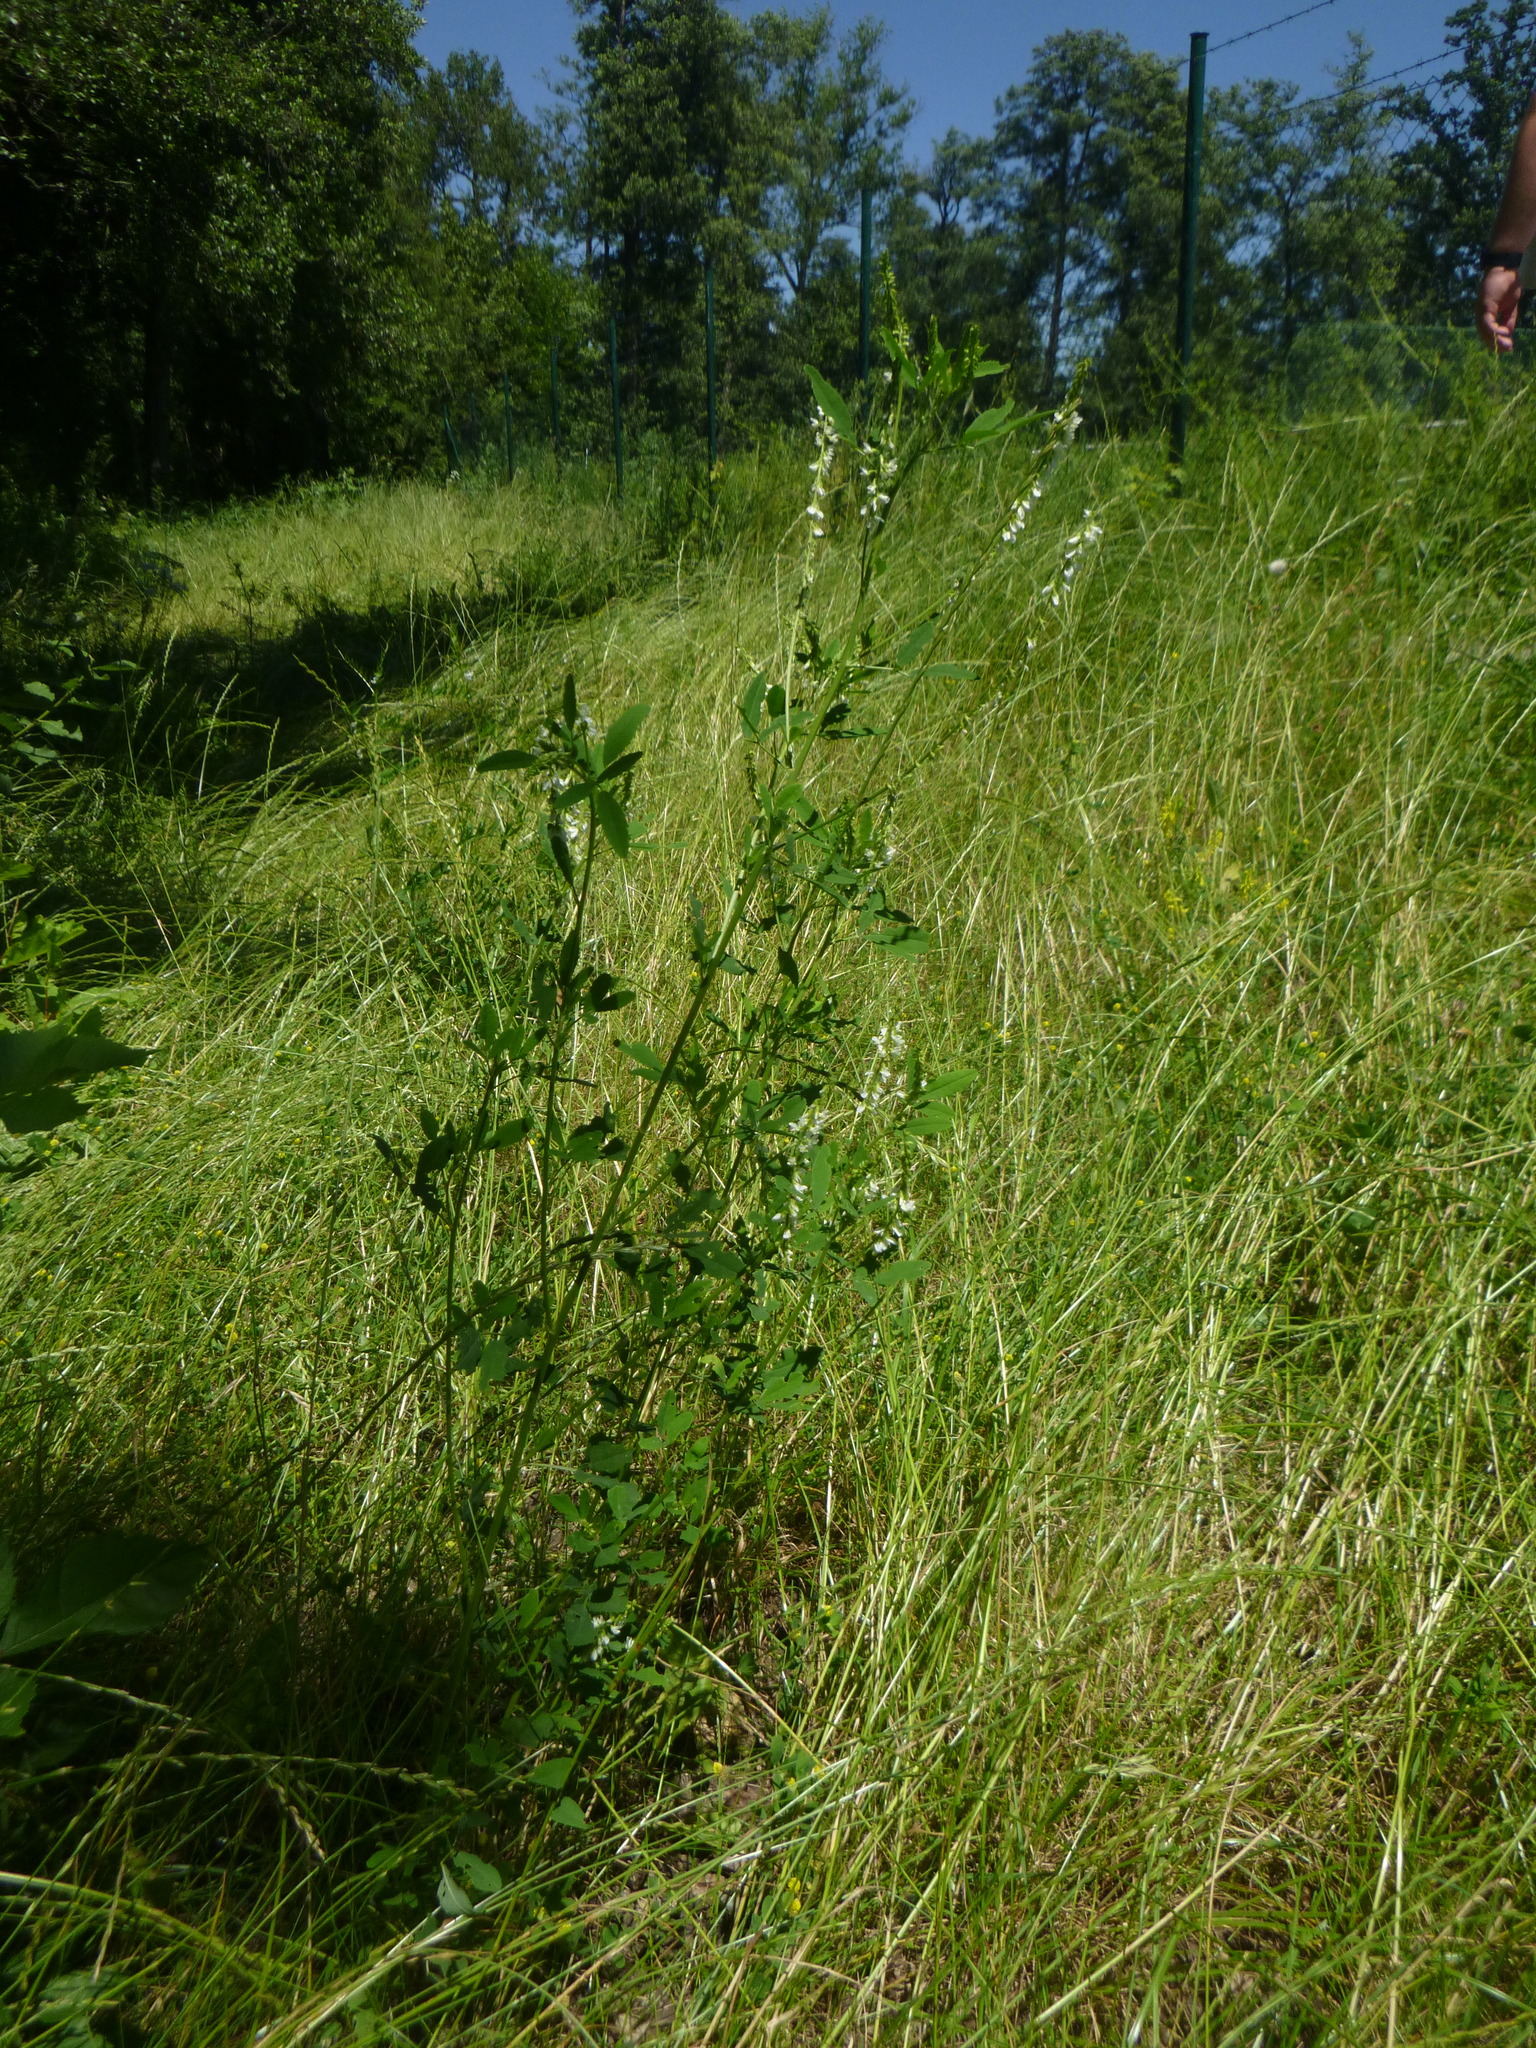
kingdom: Plantae
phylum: Tracheophyta
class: Magnoliopsida
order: Fabales
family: Fabaceae
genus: Melilotus
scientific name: Melilotus albus
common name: White melilot
